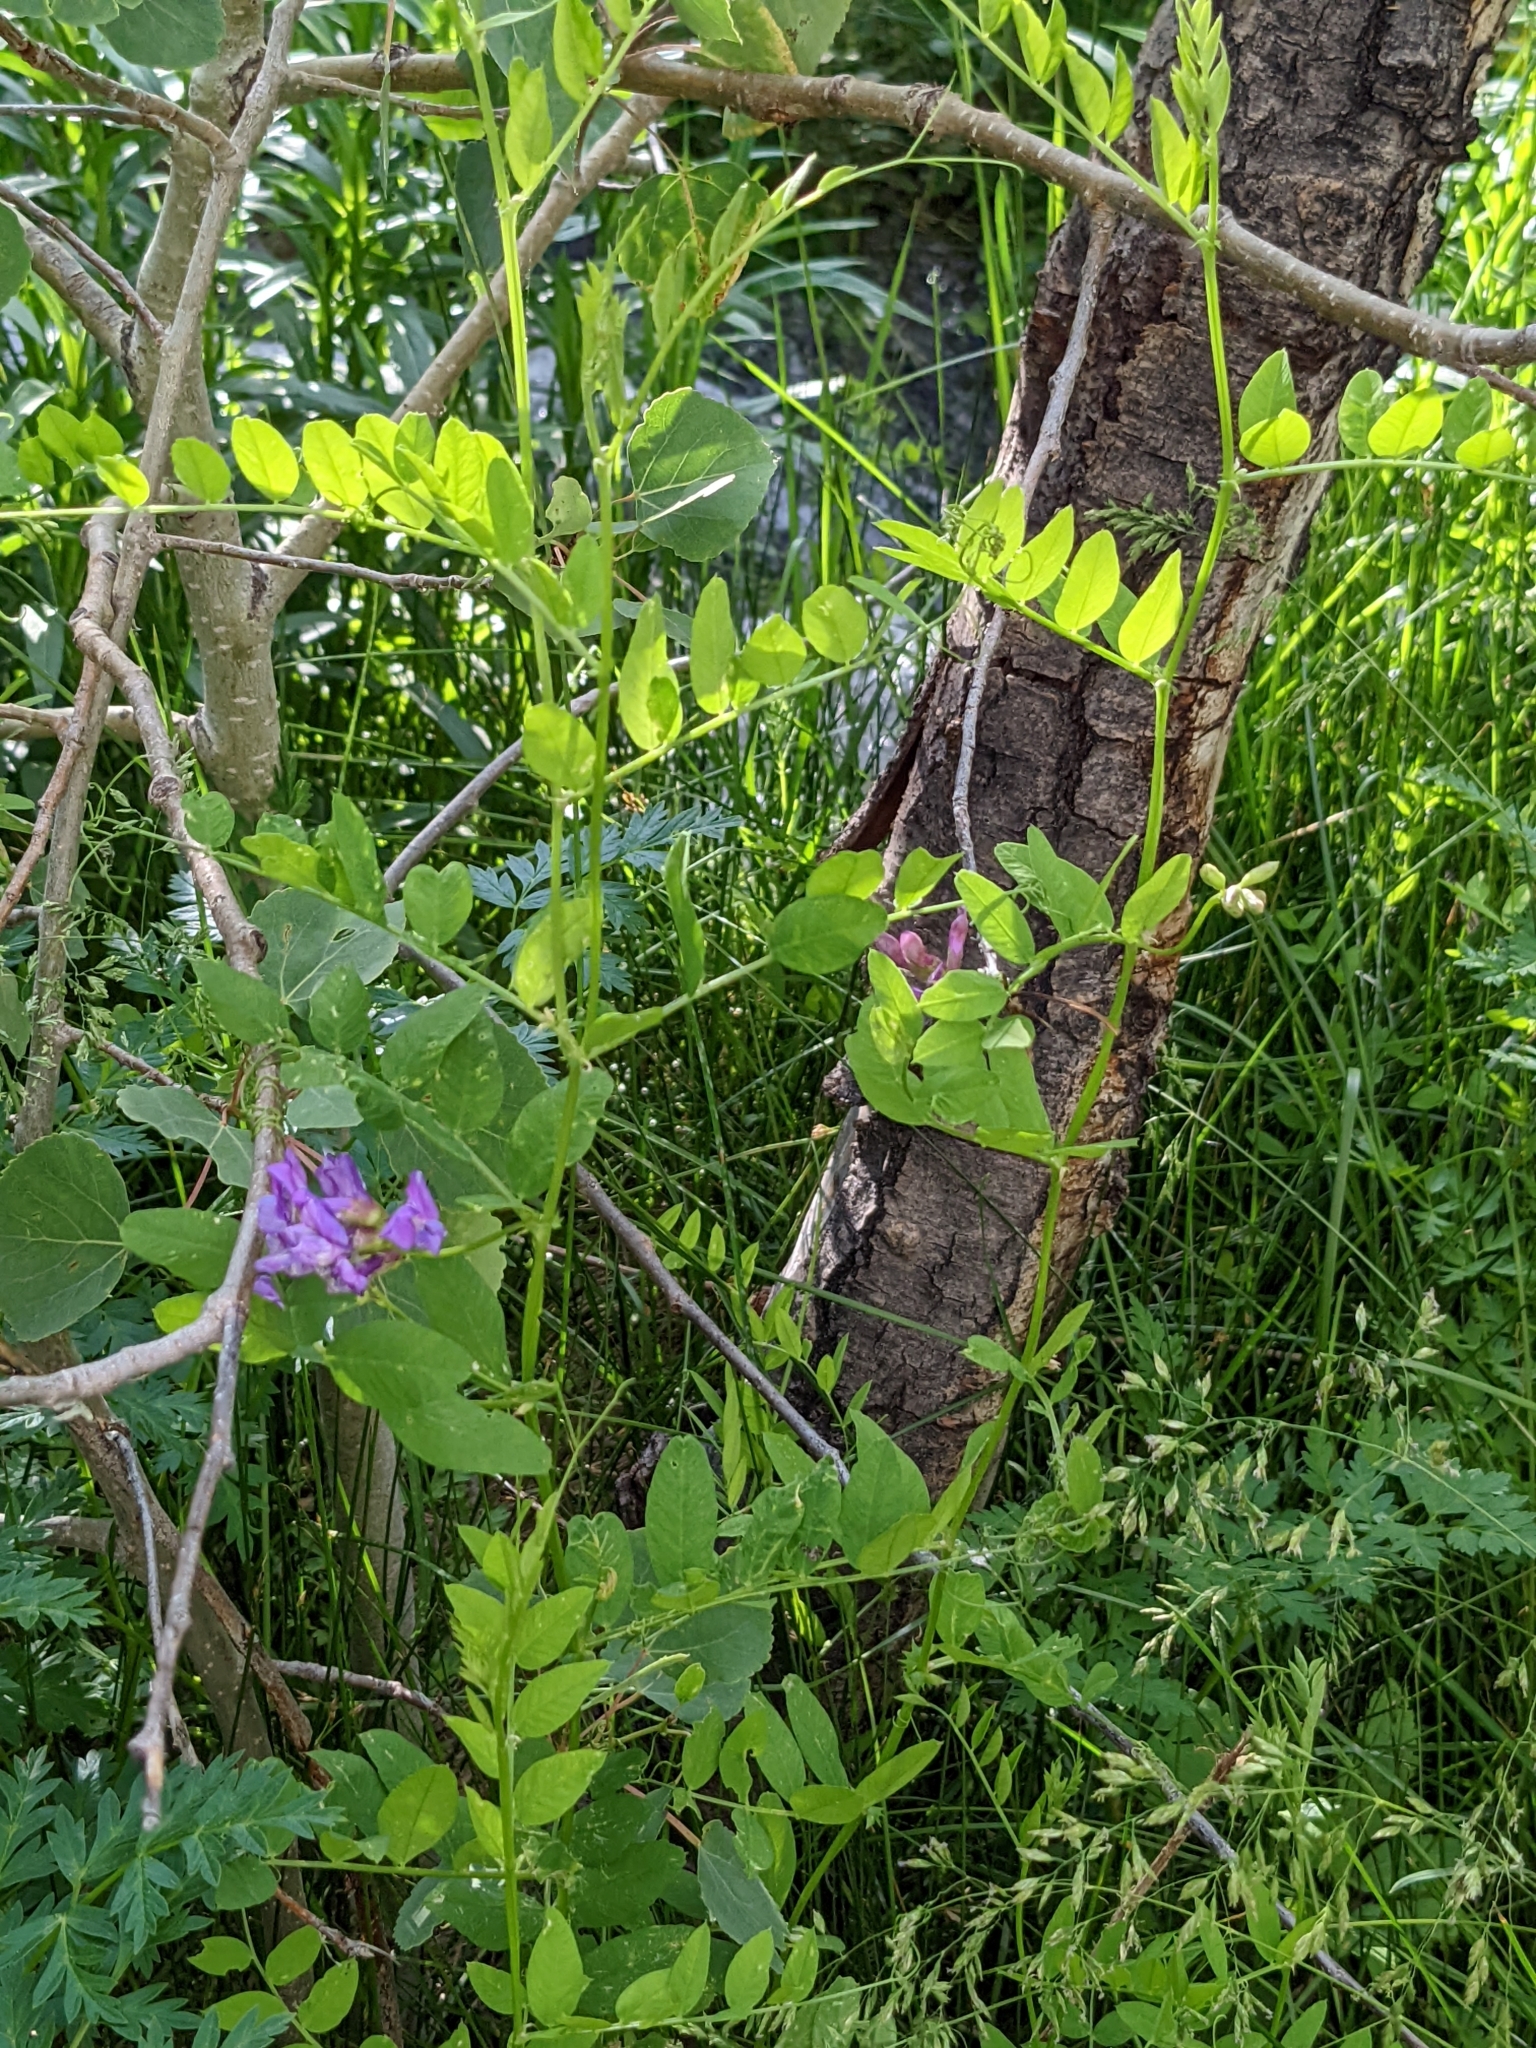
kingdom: Plantae
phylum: Tracheophyta
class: Magnoliopsida
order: Fabales
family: Fabaceae
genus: Vicia
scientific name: Vicia americana
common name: American vetch
